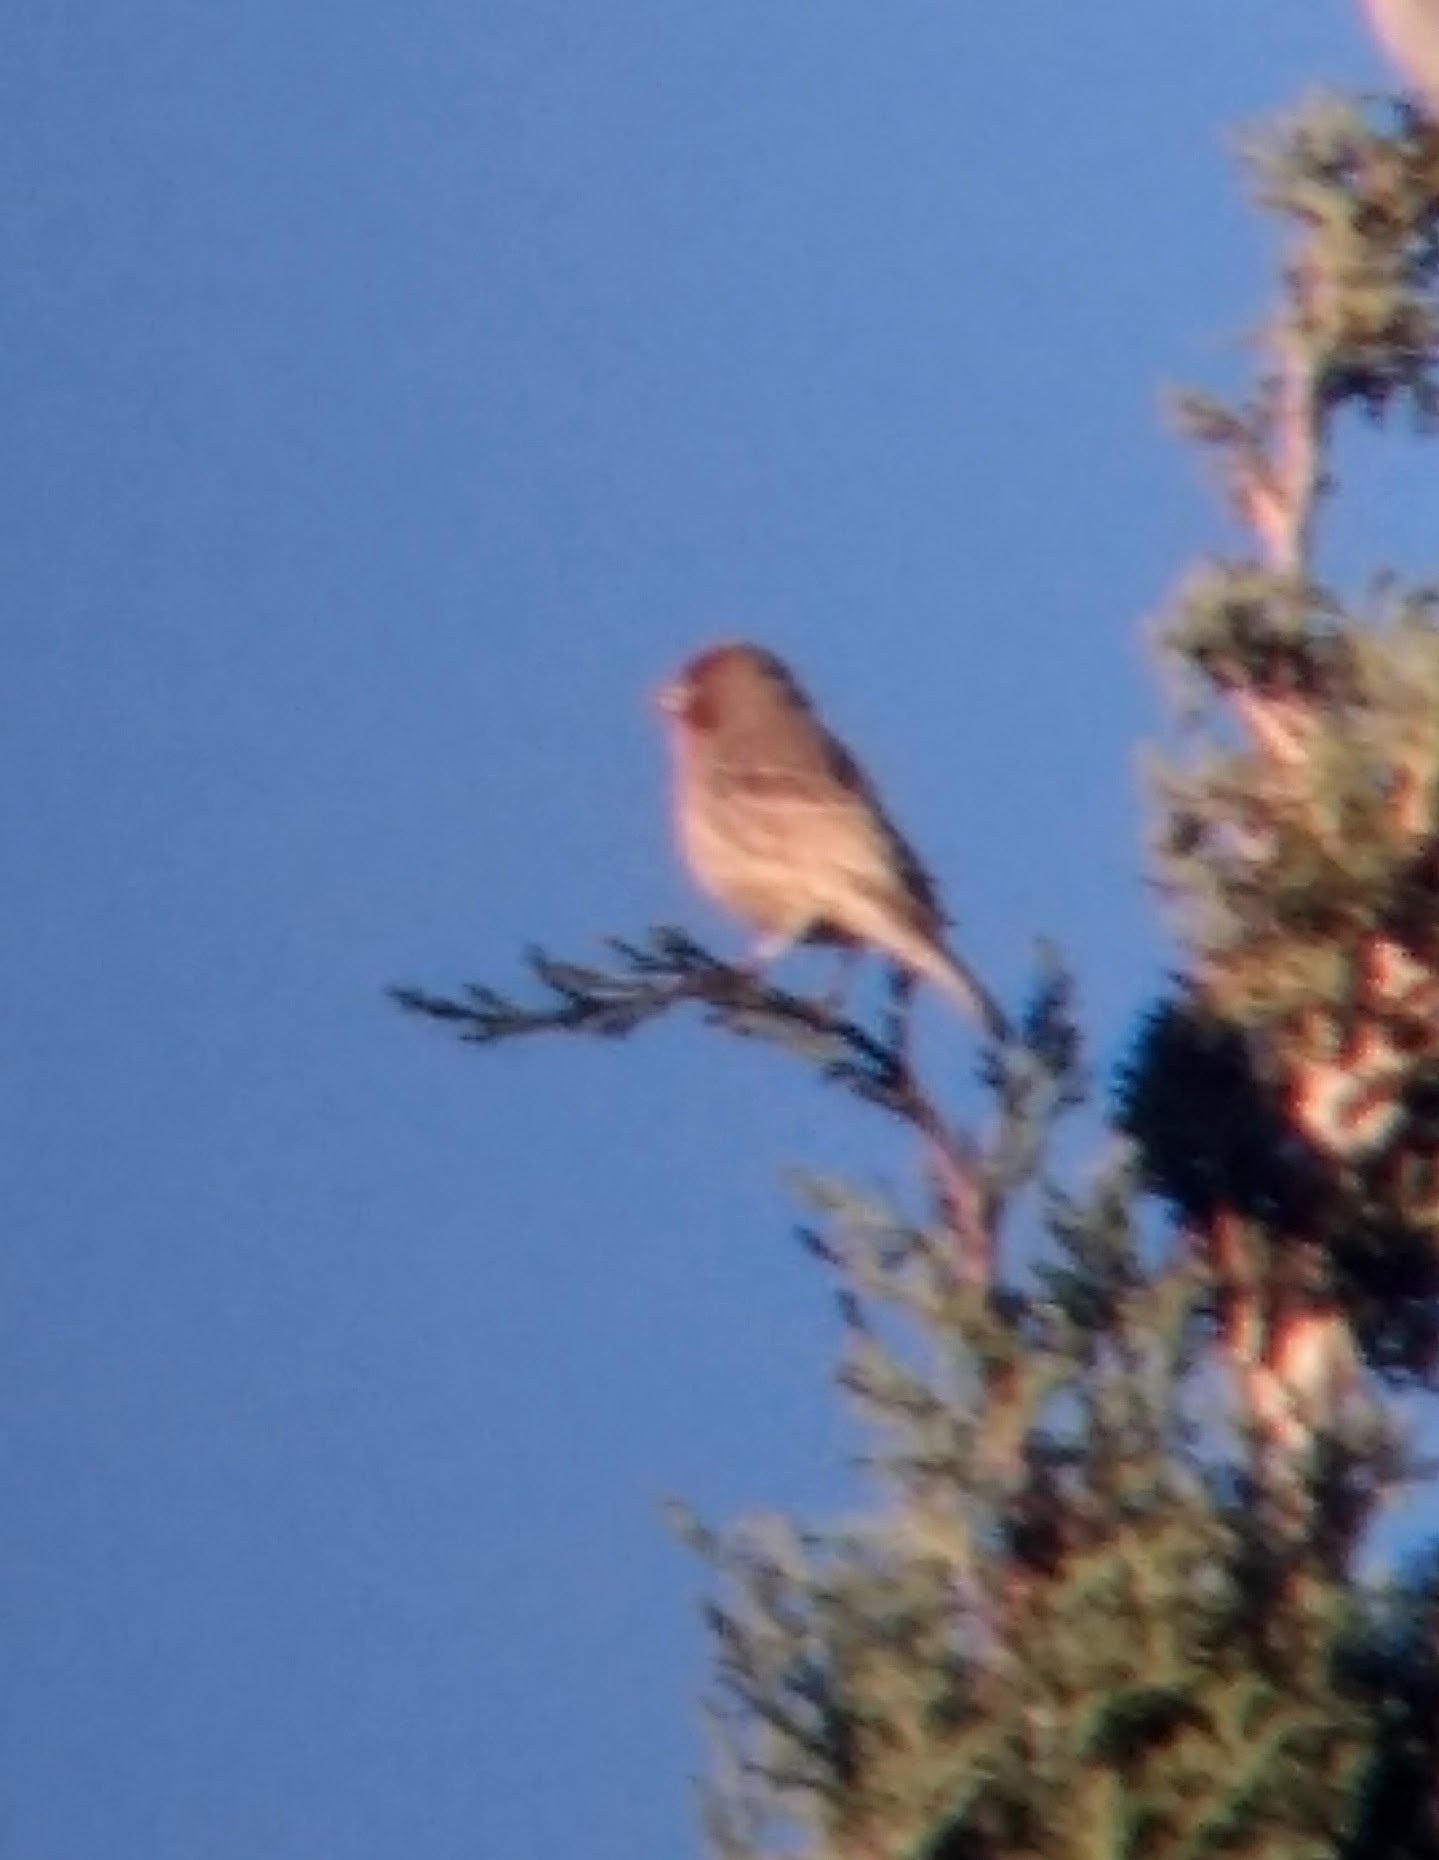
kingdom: Animalia
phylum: Chordata
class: Aves
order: Passeriformes
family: Fringillidae
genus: Haemorhous
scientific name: Haemorhous mexicanus
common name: House finch
